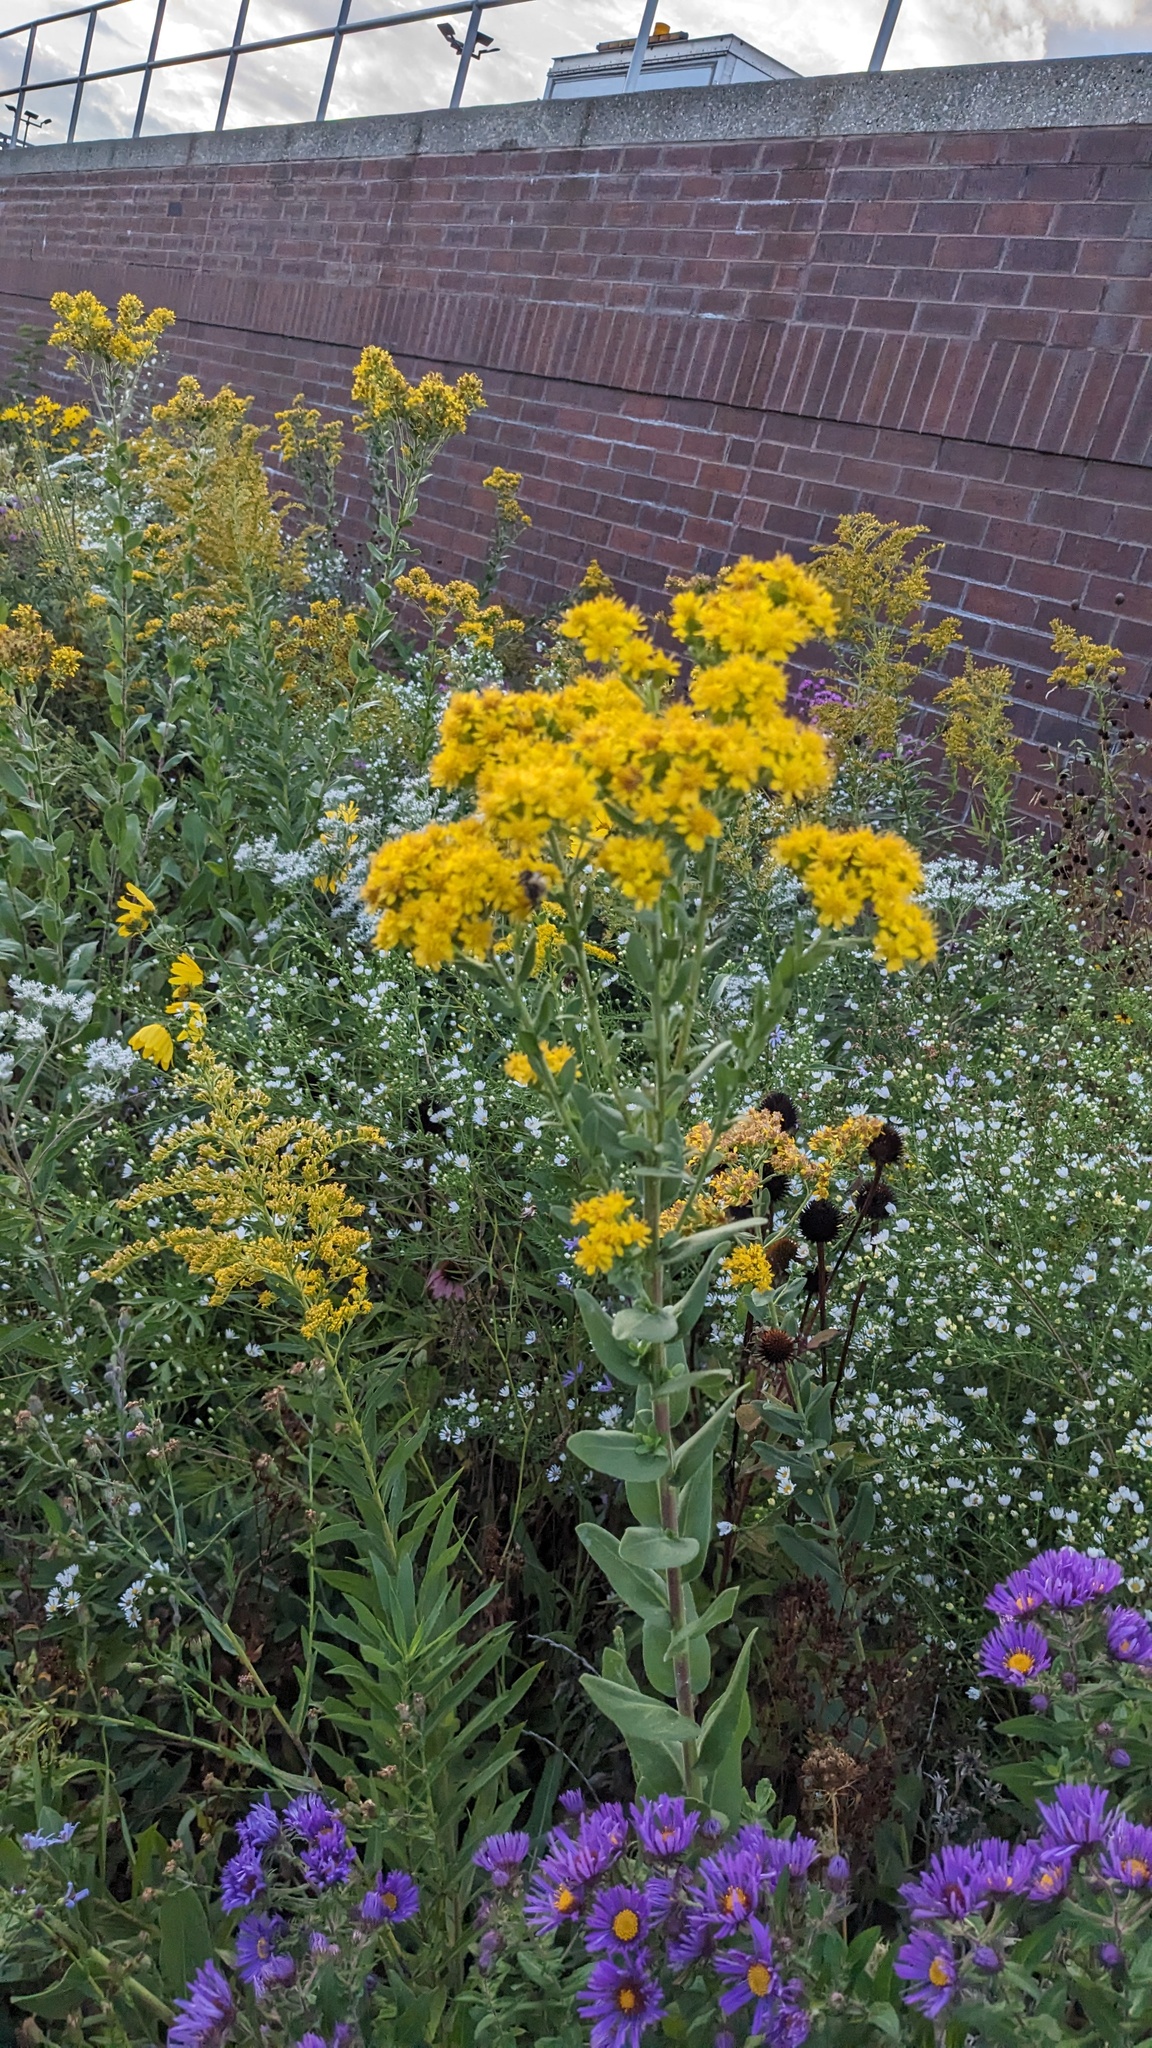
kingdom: Plantae
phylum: Tracheophyta
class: Magnoliopsida
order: Asterales
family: Asteraceae
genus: Solidago
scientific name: Solidago rigida
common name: Rigid goldenrod
